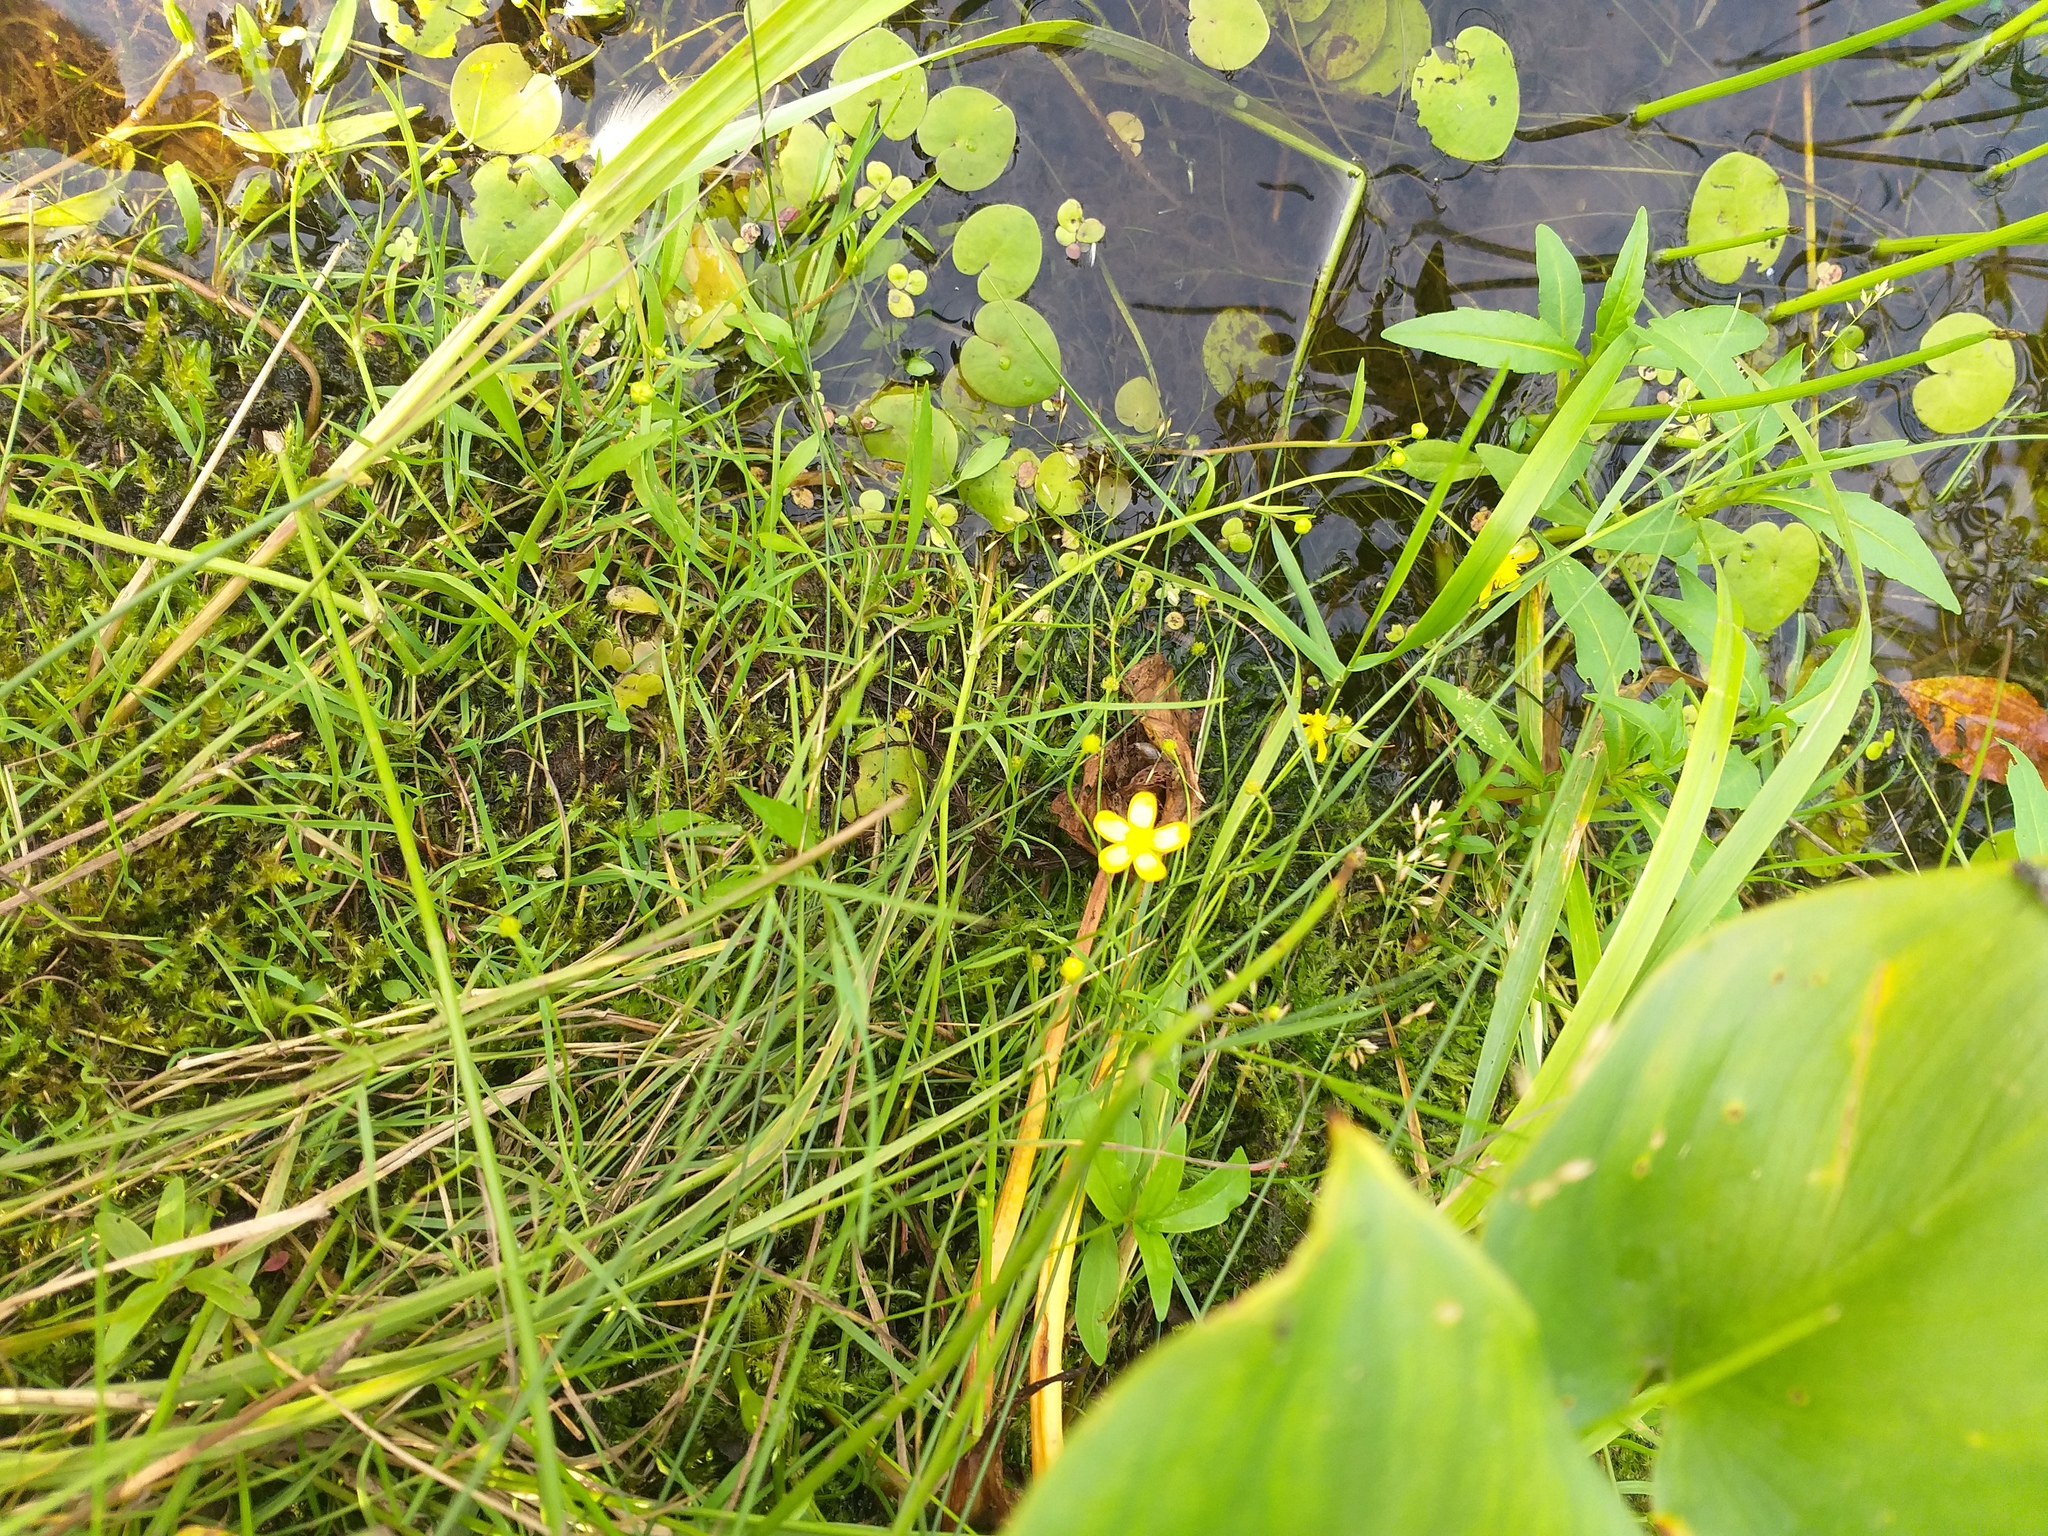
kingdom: Plantae
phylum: Tracheophyta
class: Magnoliopsida
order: Ranunculales
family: Ranunculaceae
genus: Ranunculus
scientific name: Ranunculus flammula
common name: Lesser spearwort
